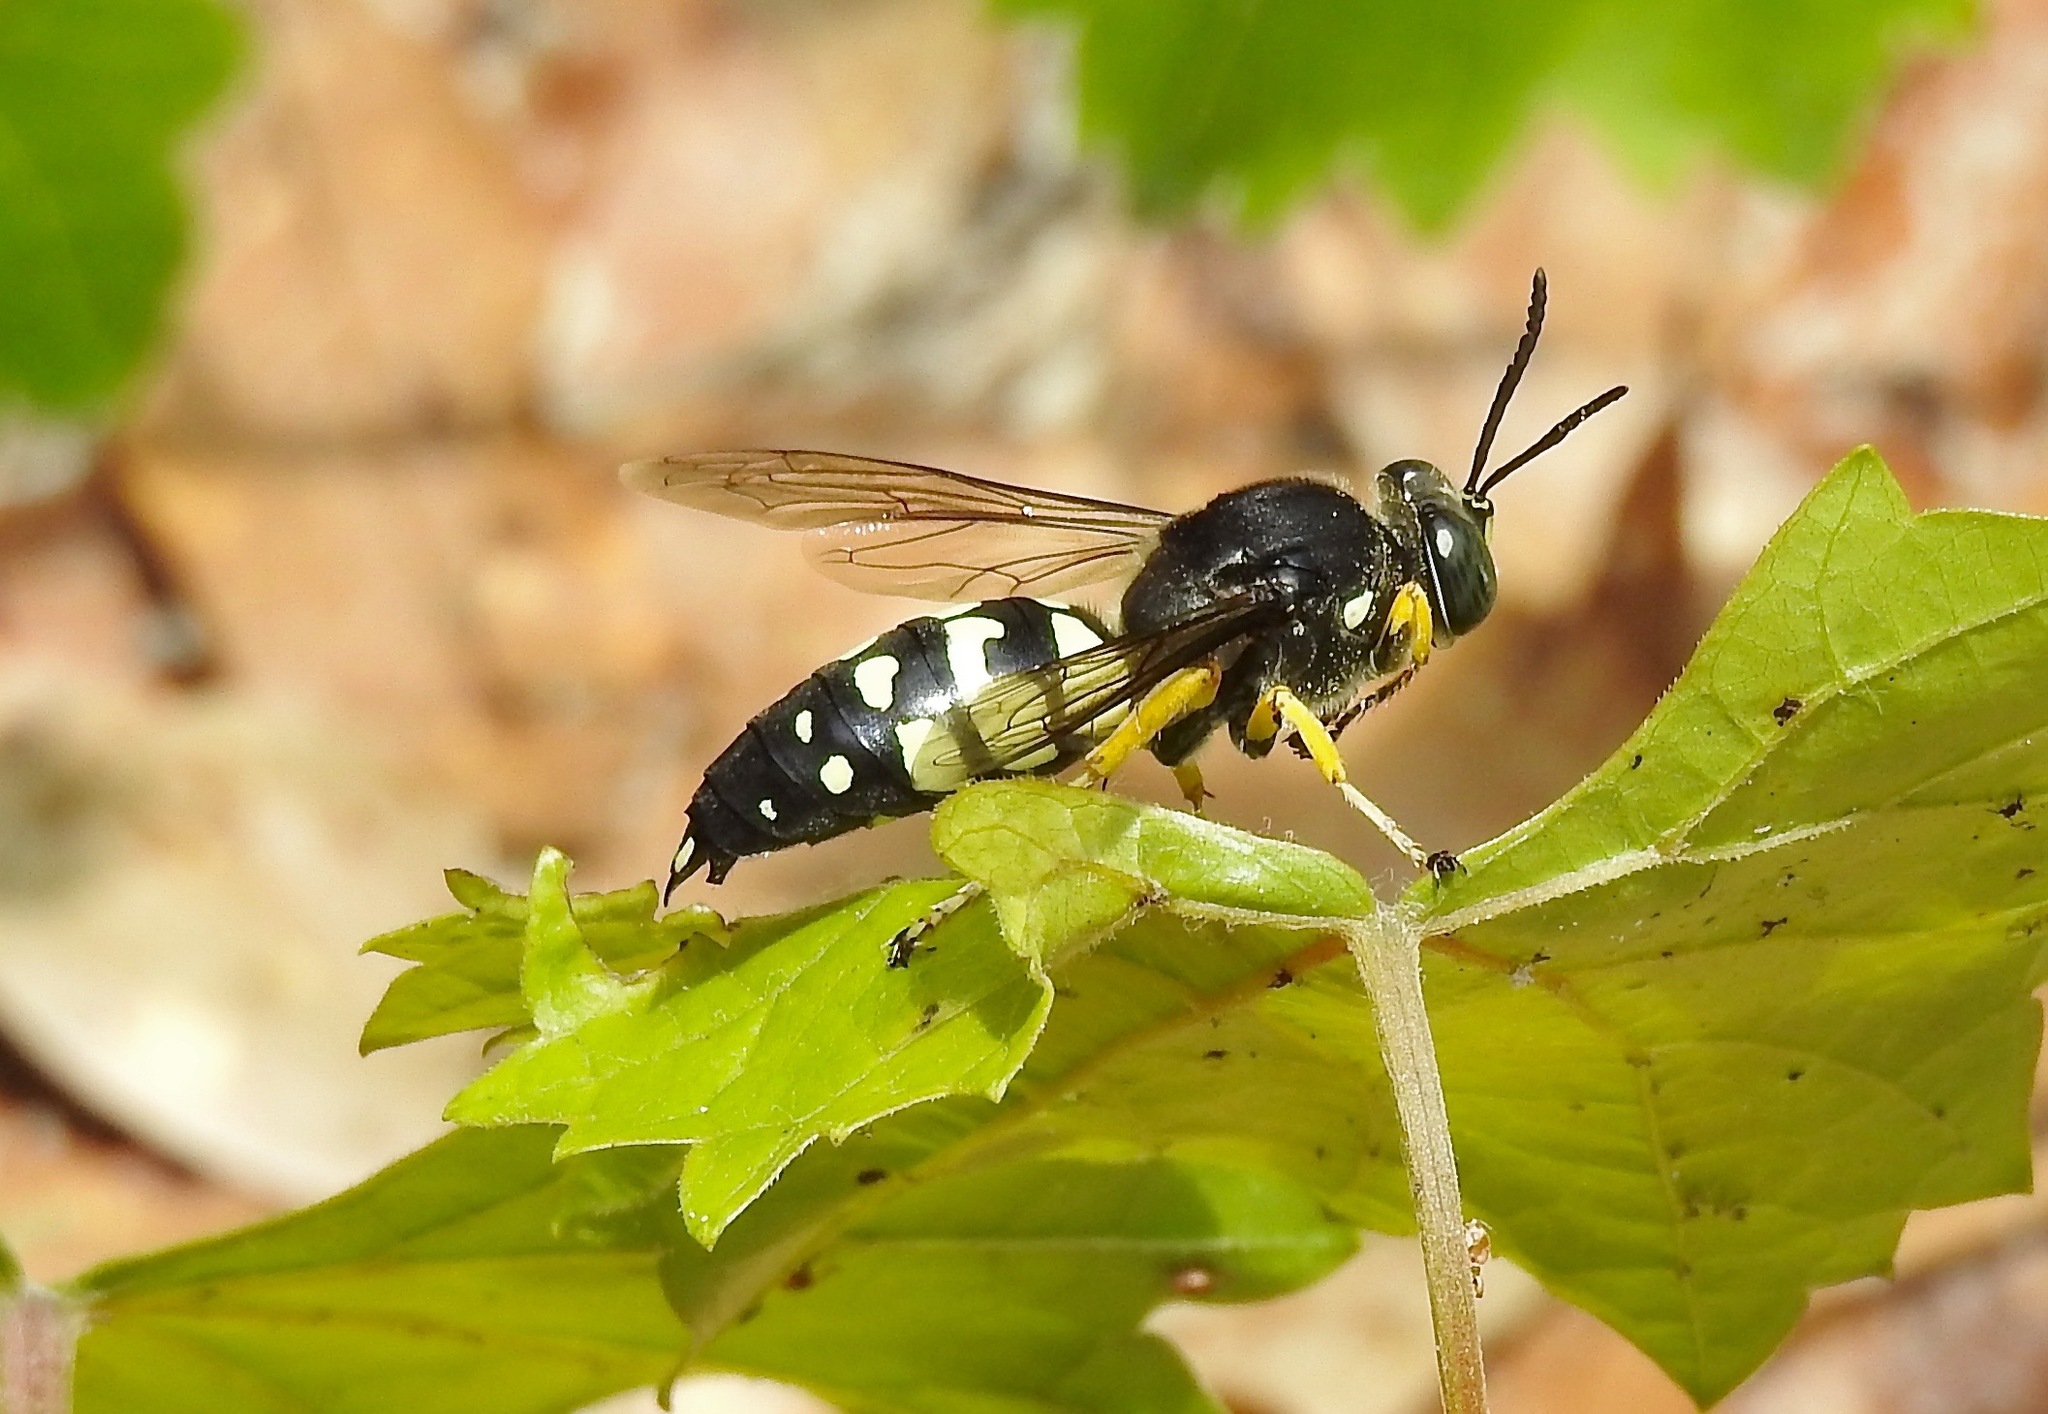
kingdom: Animalia
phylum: Arthropoda
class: Insecta
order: Hymenoptera
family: Crabronidae
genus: Stictia
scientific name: Stictia carolina
